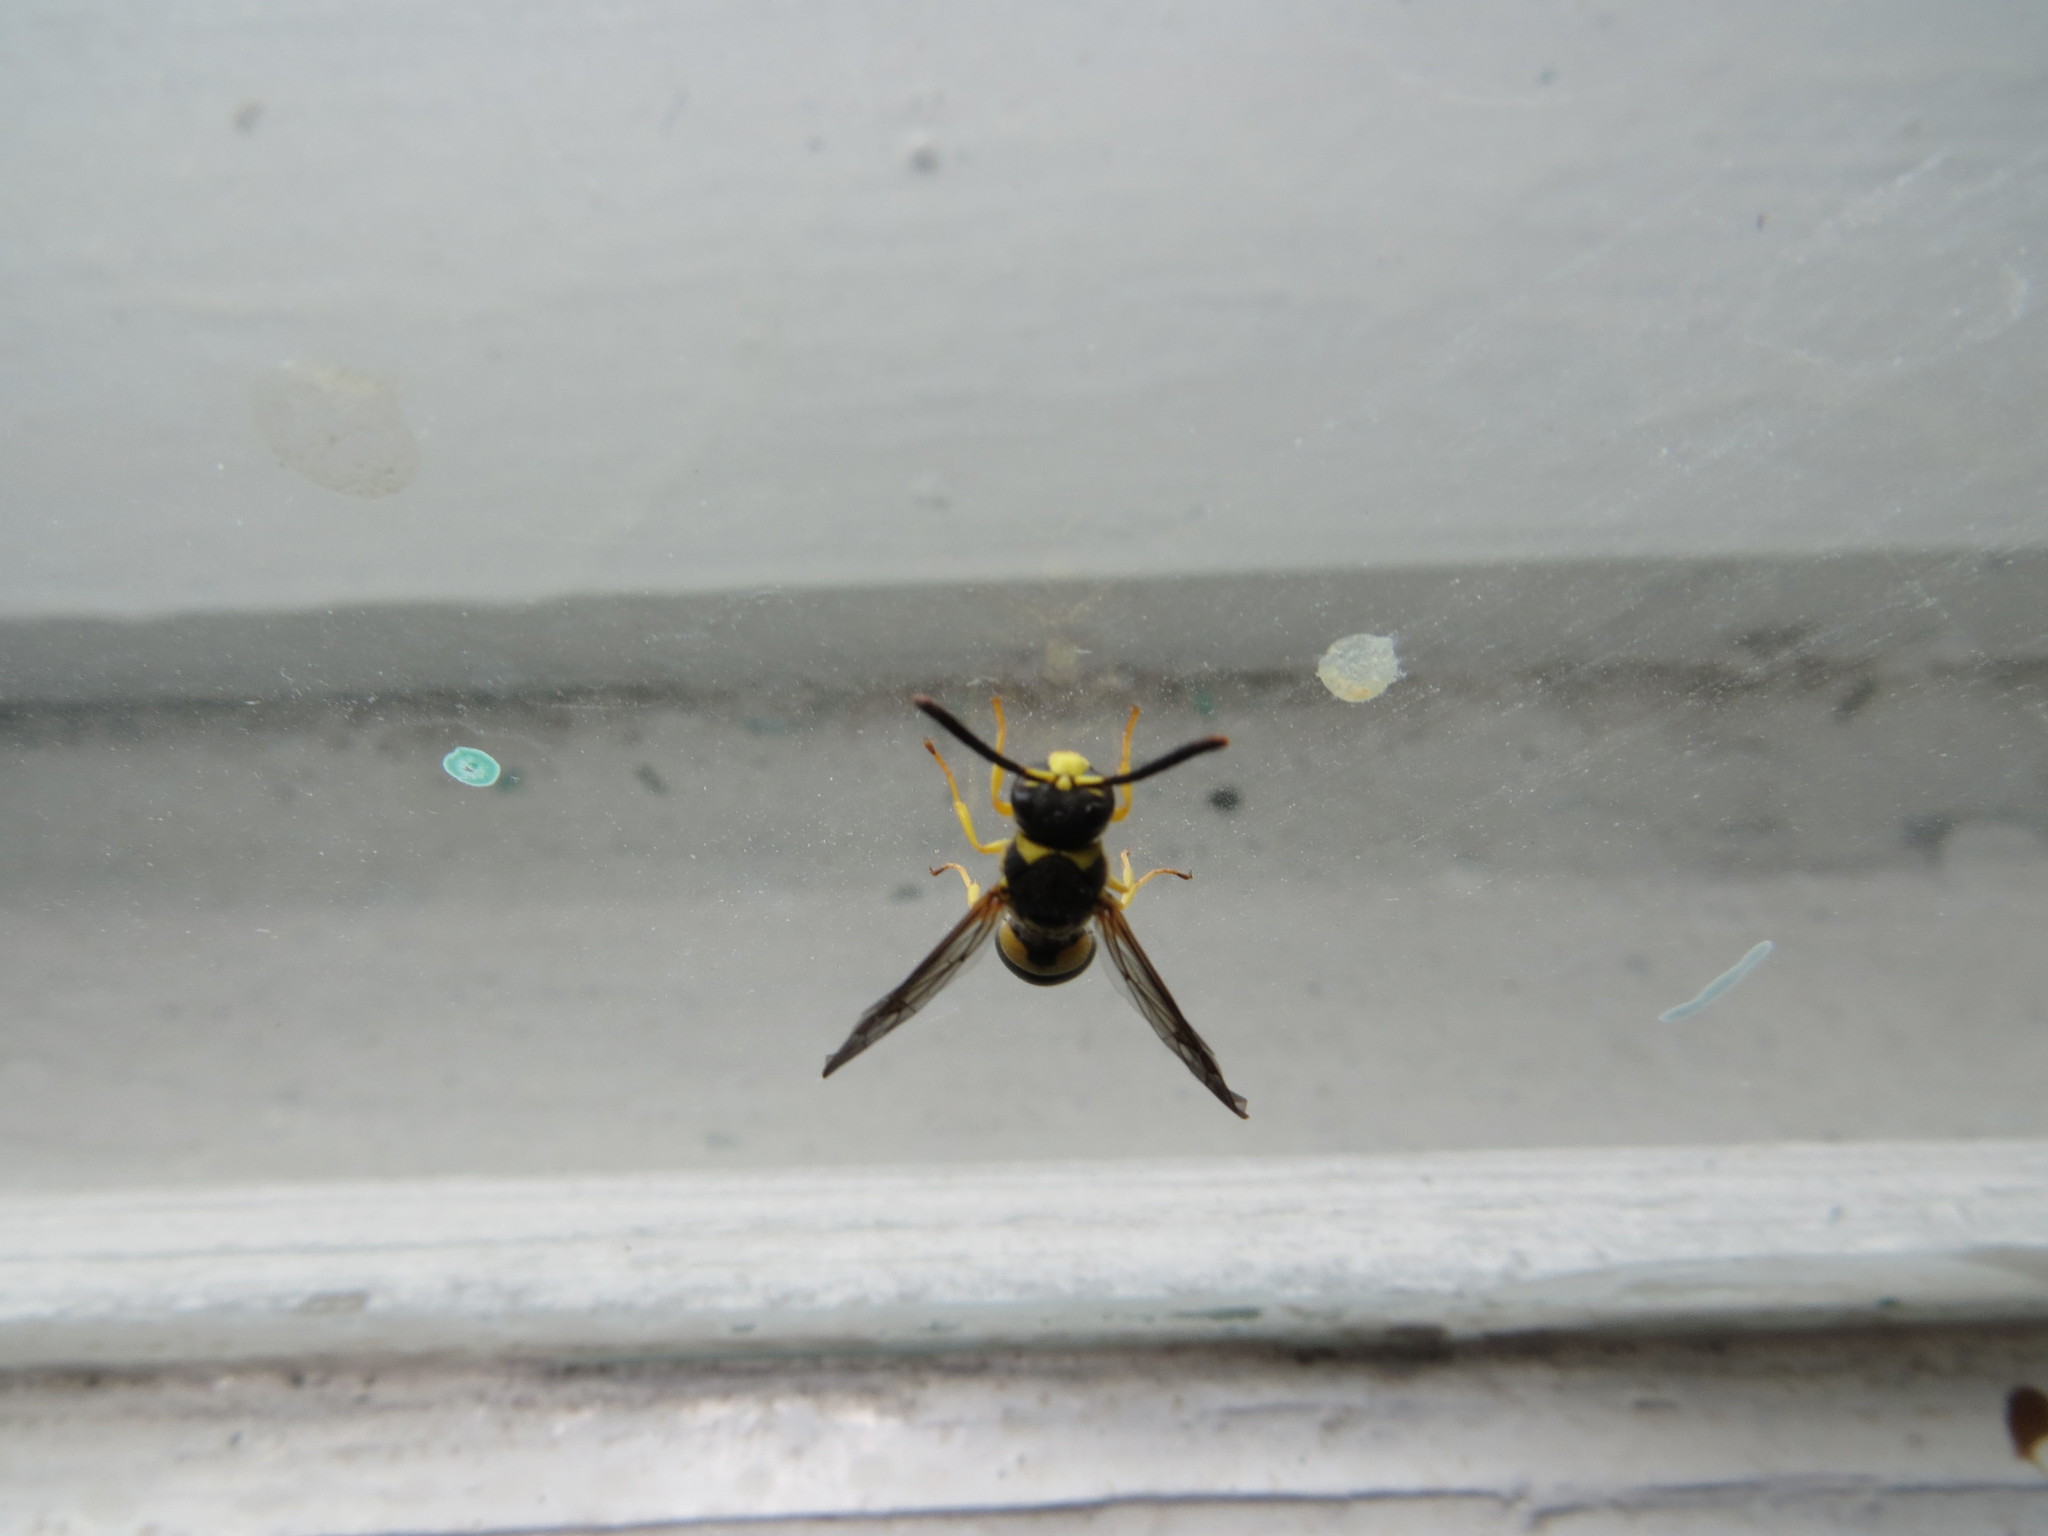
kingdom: Animalia
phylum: Arthropoda
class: Insecta
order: Hymenoptera
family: Vespidae
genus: Ancistrocerus
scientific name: Ancistrocerus auctus
